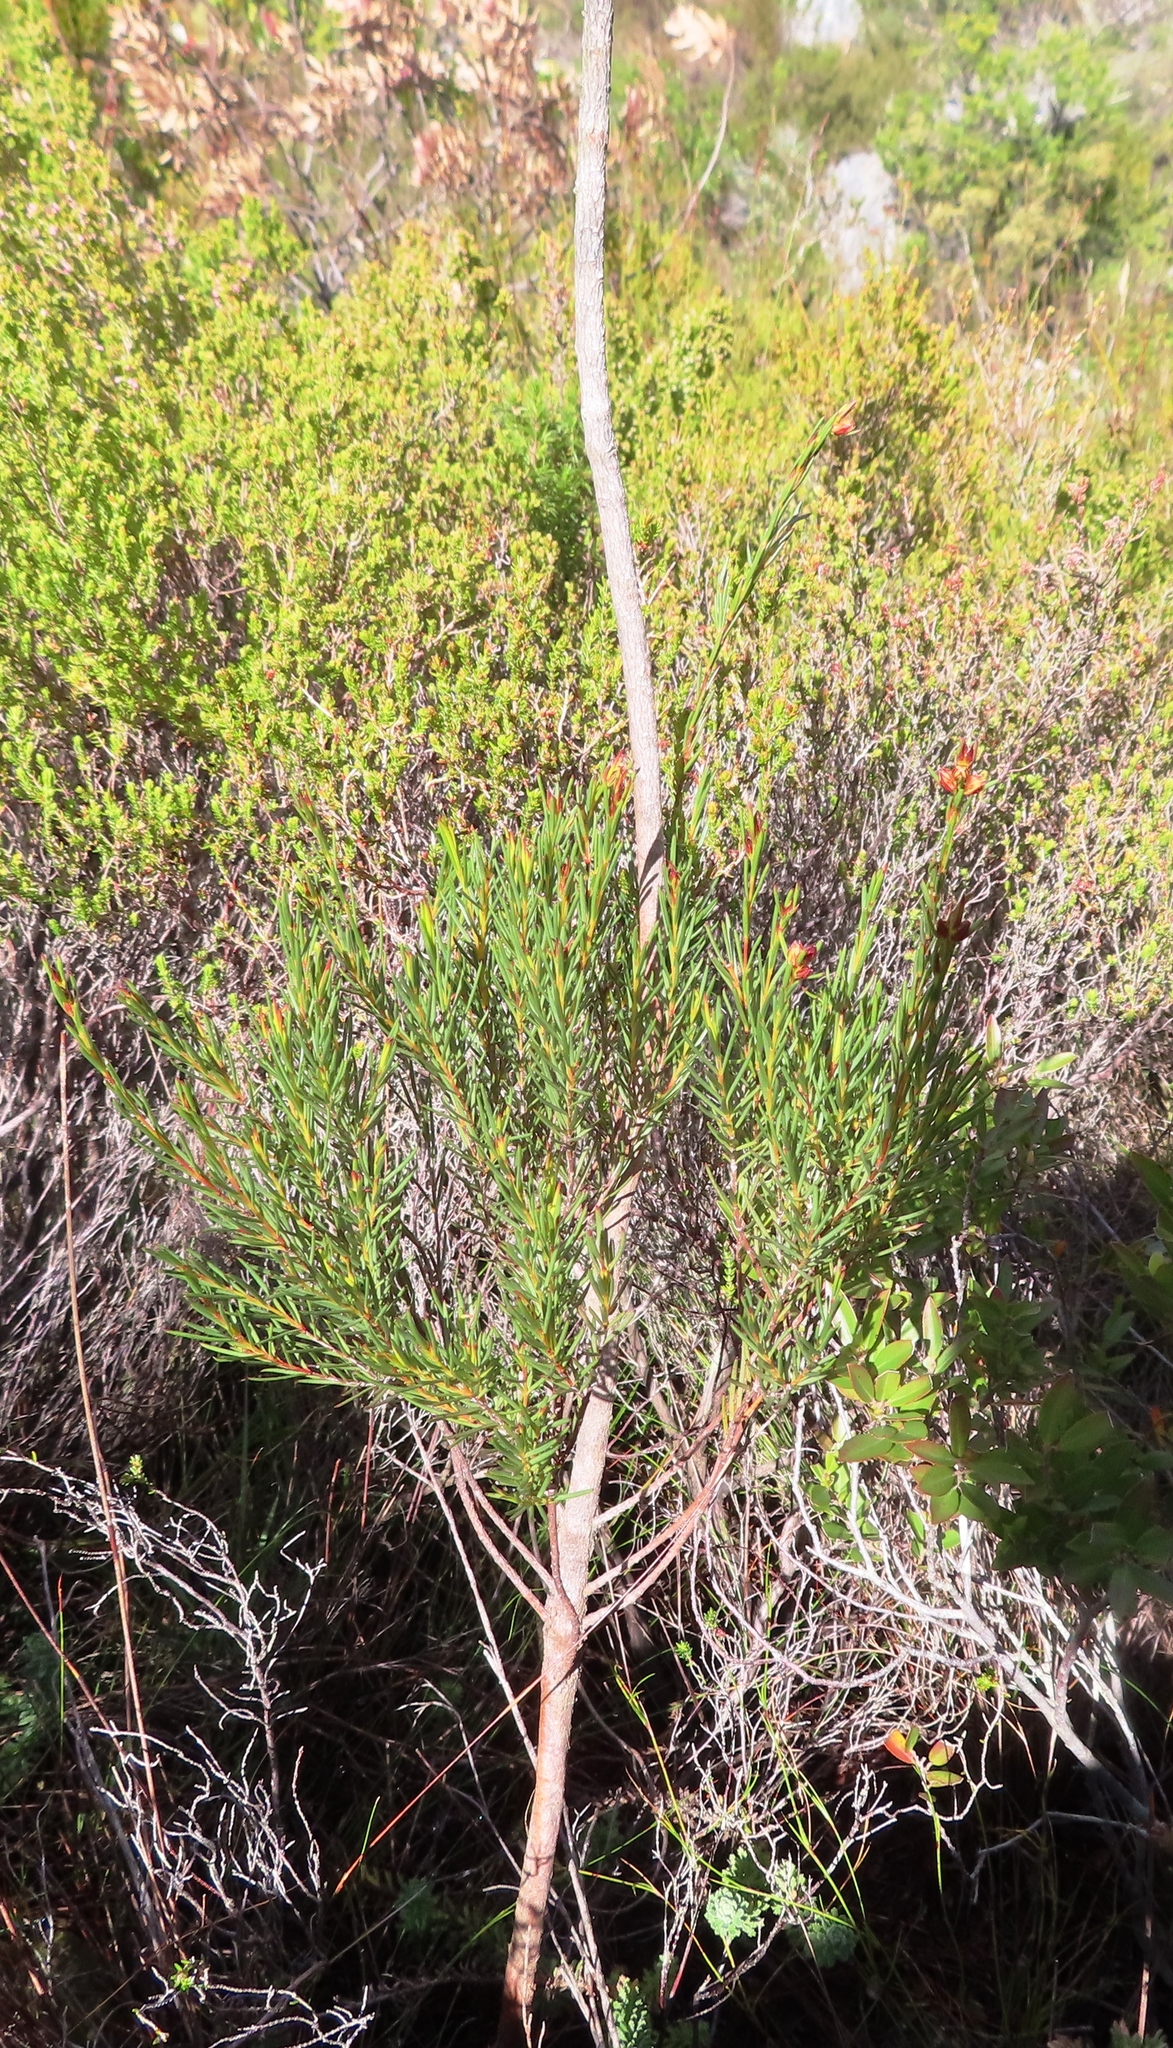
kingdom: Plantae
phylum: Tracheophyta
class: Magnoliopsida
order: Myrtales
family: Penaeaceae
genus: Stylapterus
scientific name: Stylapterus micranthus
